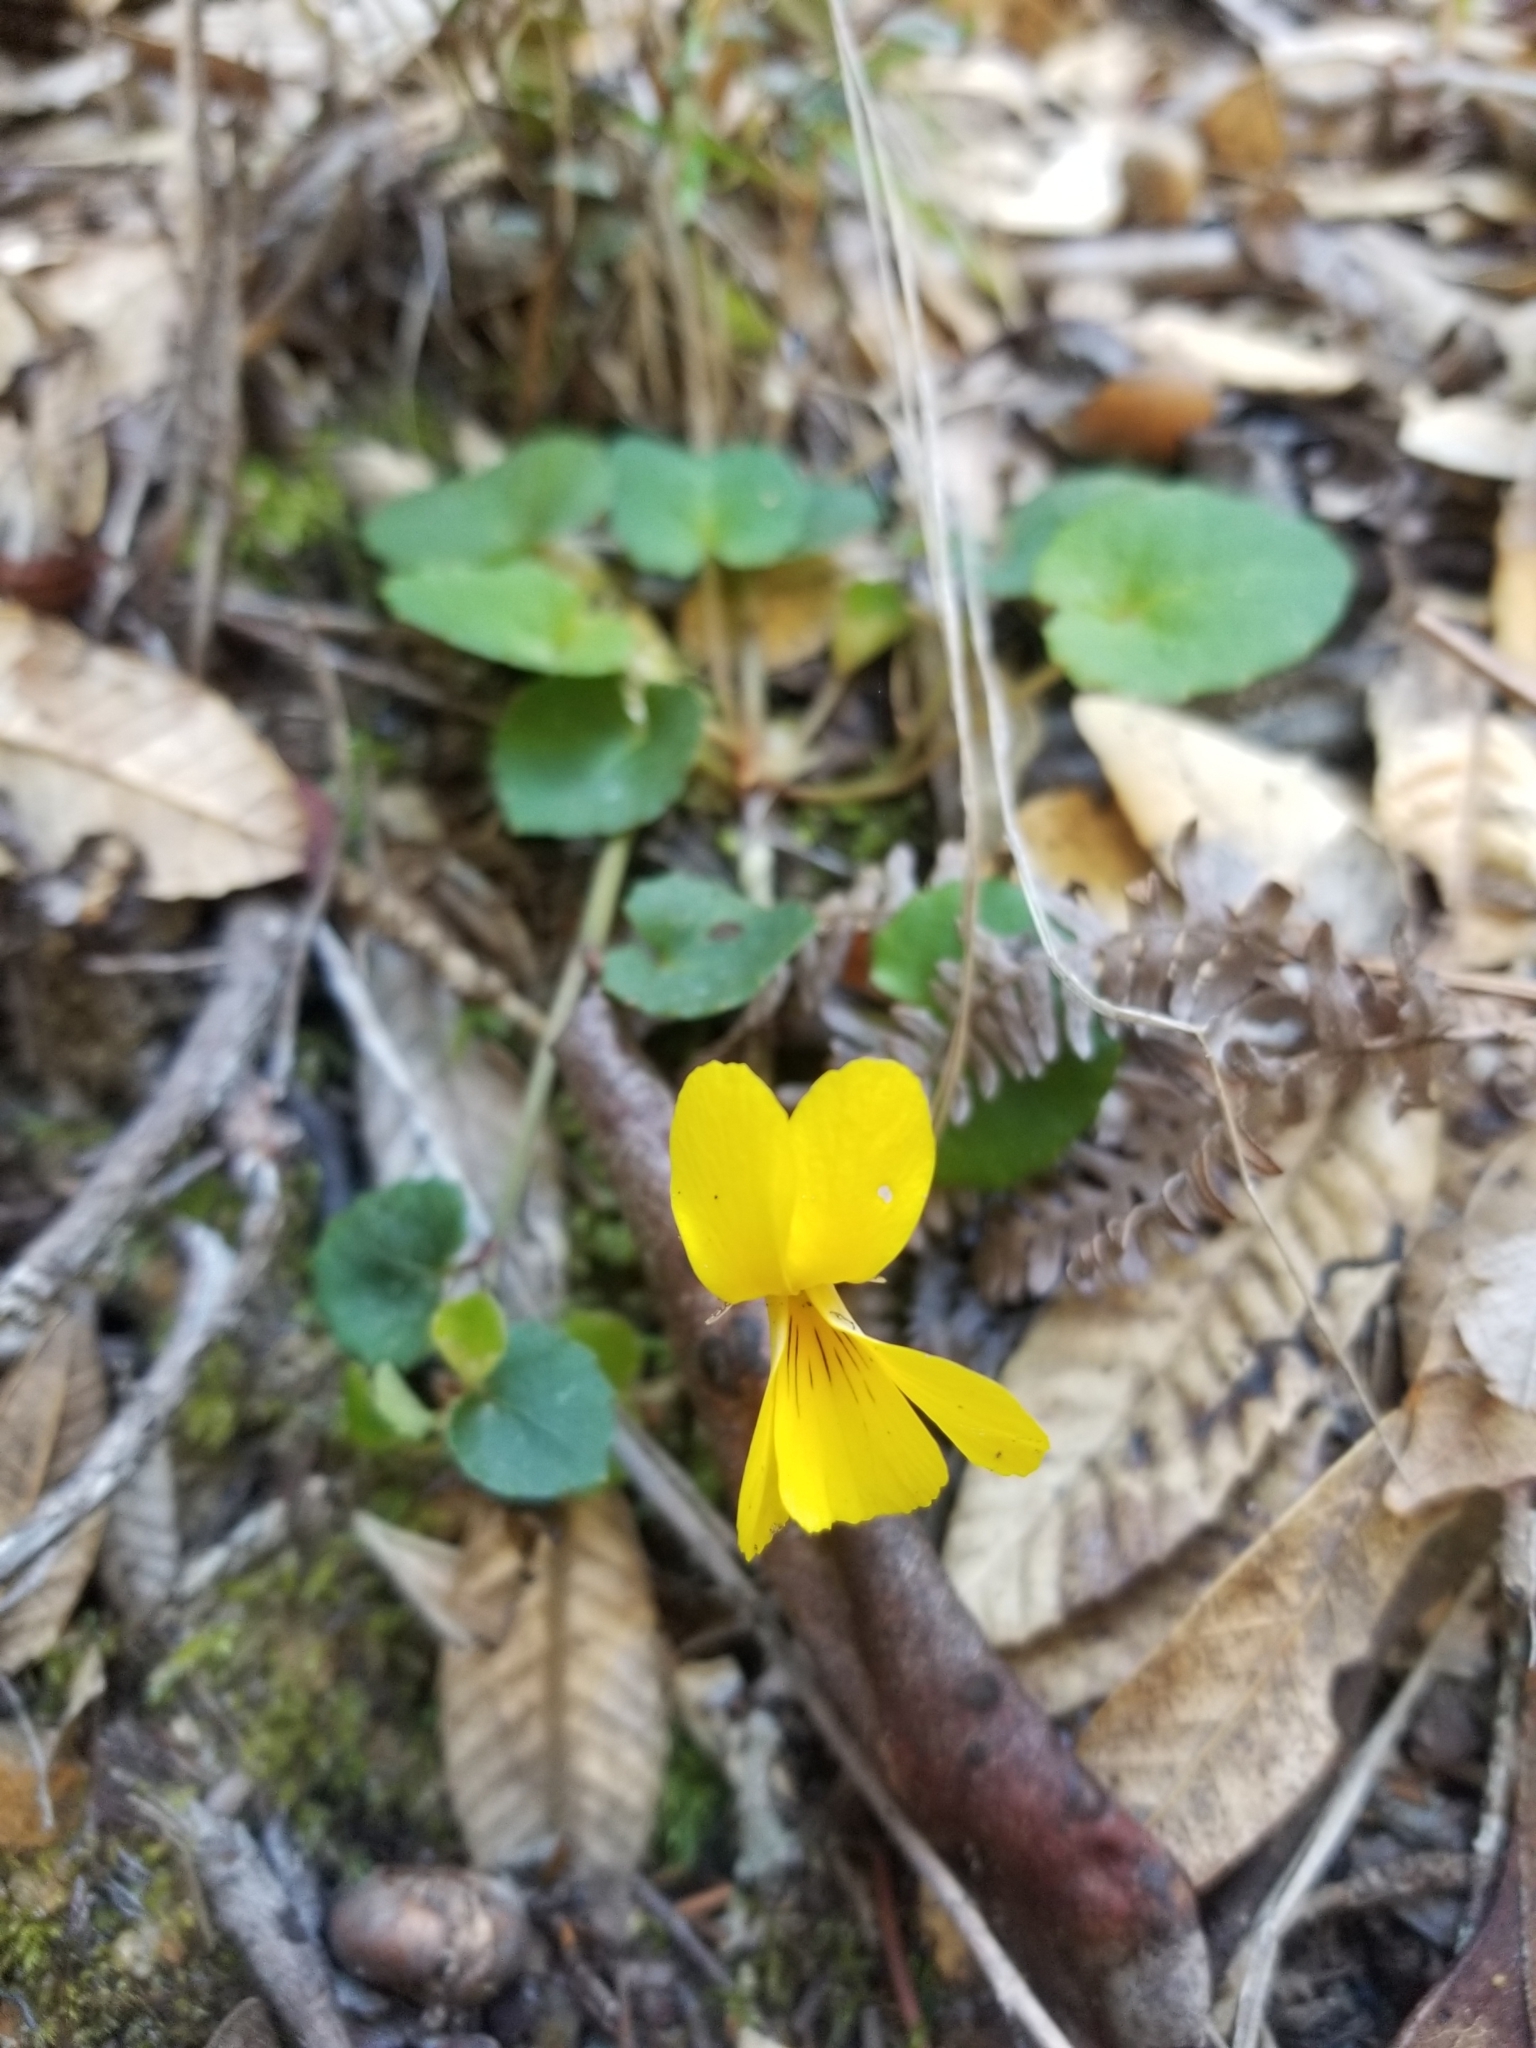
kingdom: Plantae
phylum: Tracheophyta
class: Magnoliopsida
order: Malpighiales
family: Violaceae
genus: Viola
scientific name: Viola sempervirens
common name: Evergreen violet
